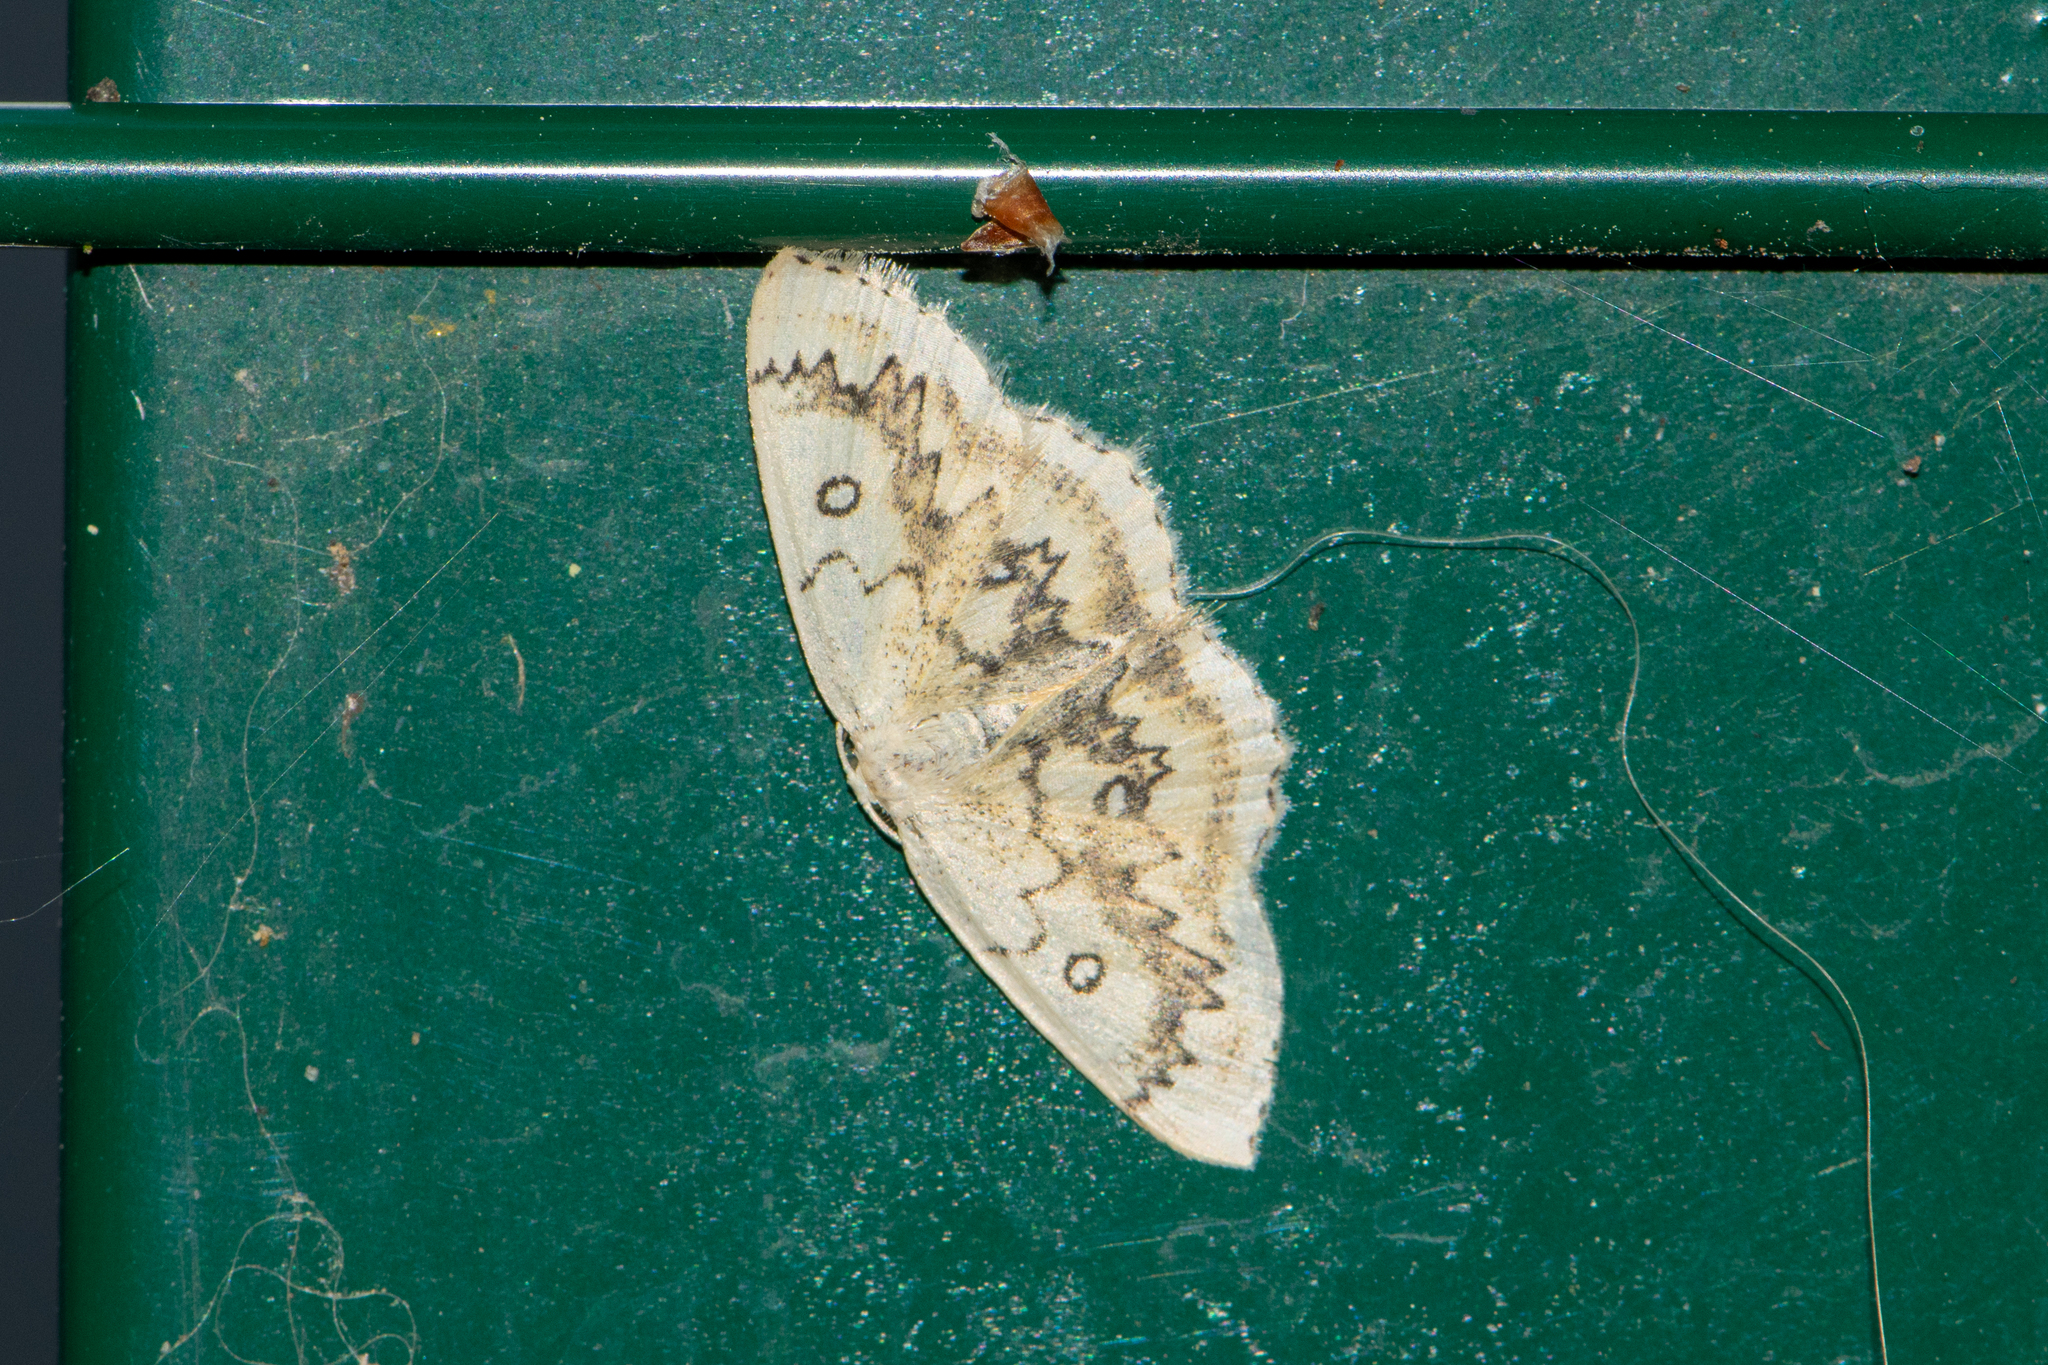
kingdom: Animalia
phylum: Arthropoda
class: Insecta
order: Lepidoptera
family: Geometridae
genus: Cyclophora
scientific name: Cyclophora annularia
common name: Mocha
